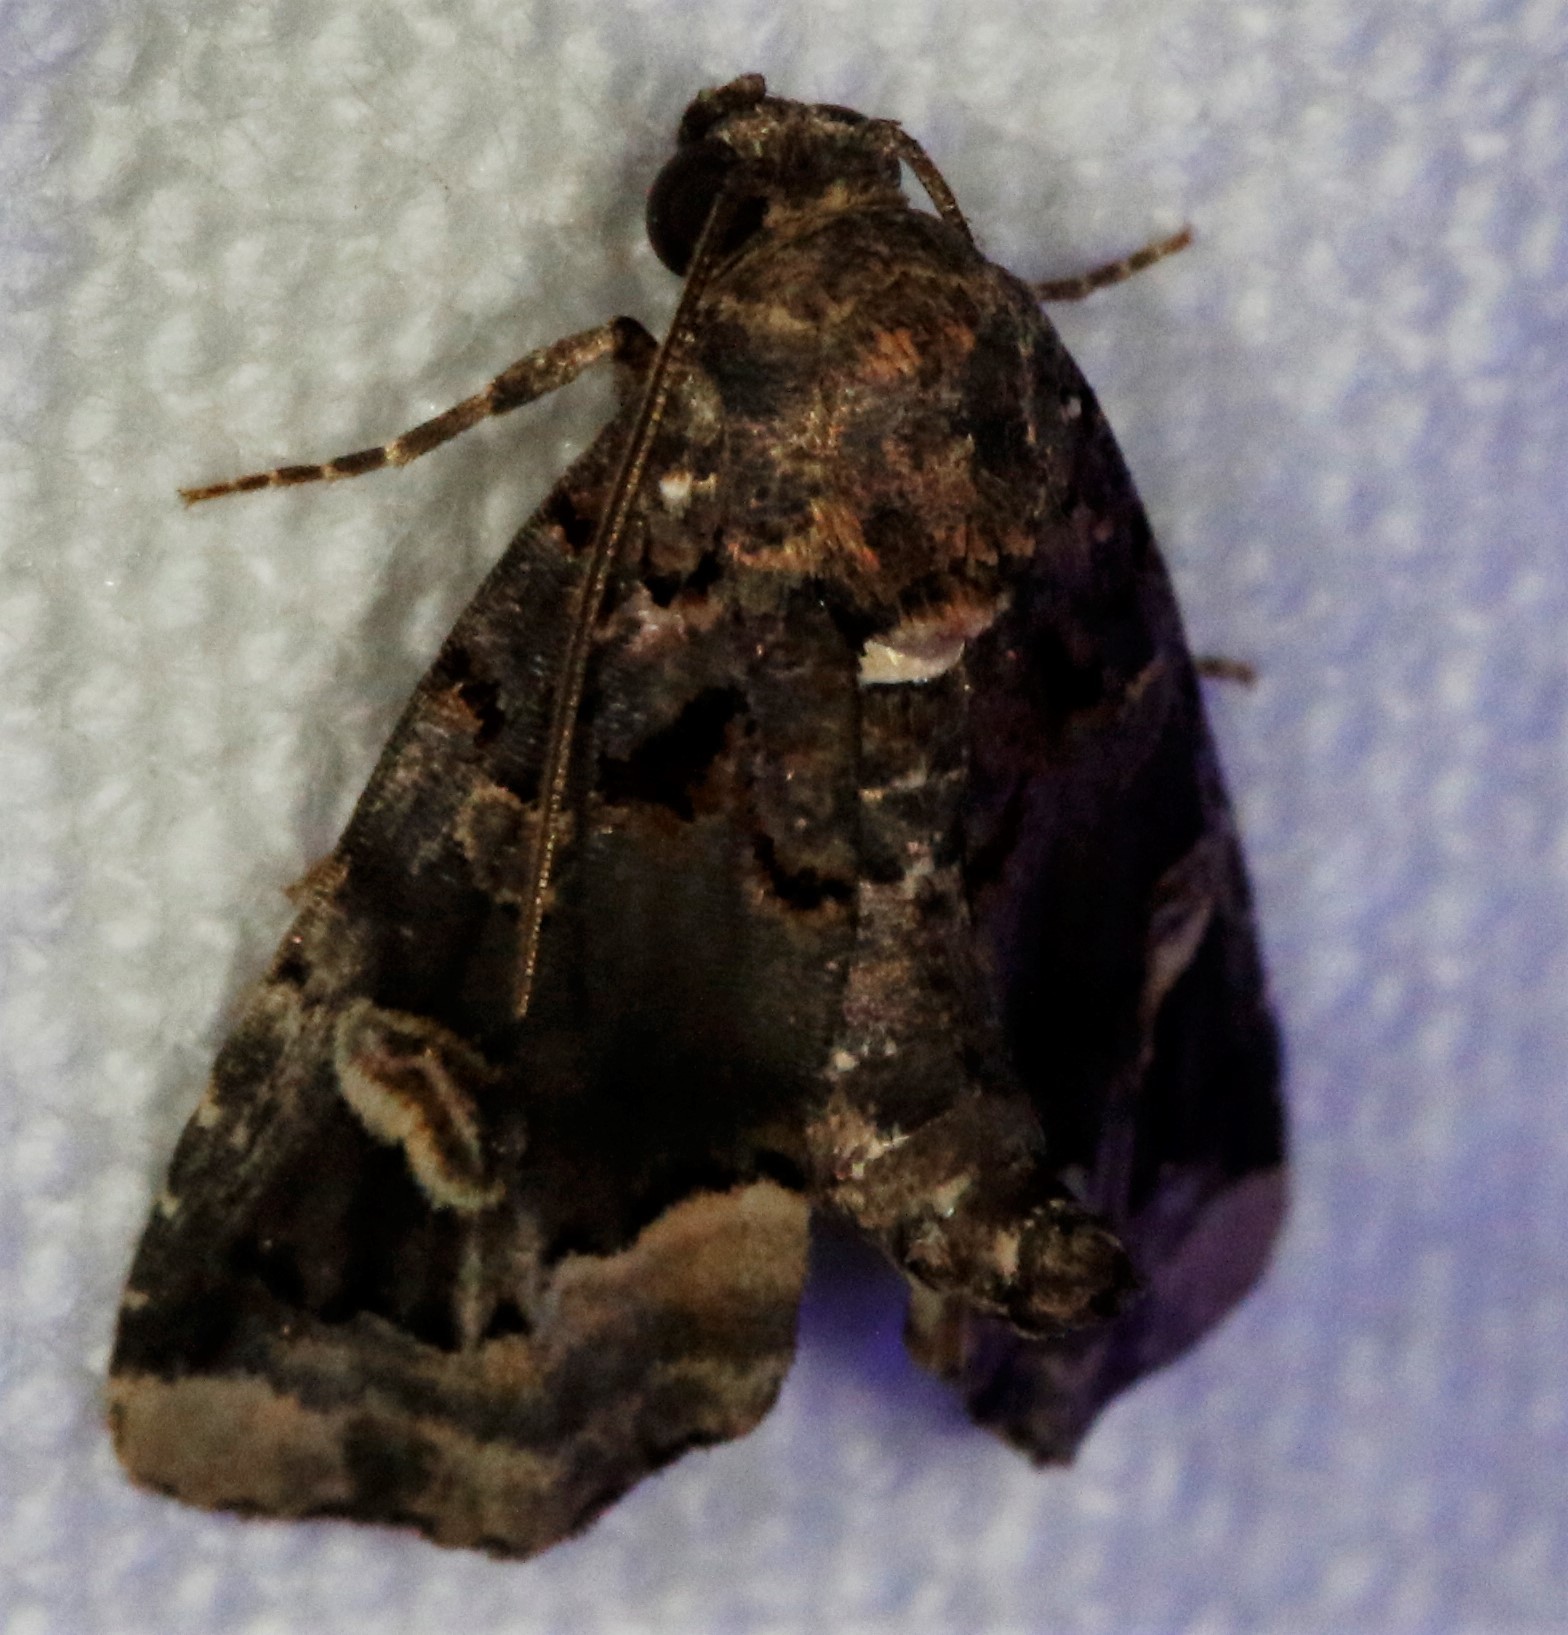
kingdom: Animalia
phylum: Arthropoda
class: Insecta
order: Lepidoptera
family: Noctuidae
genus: Homophoberia
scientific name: Homophoberia apicosa
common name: Black wedge-spot
